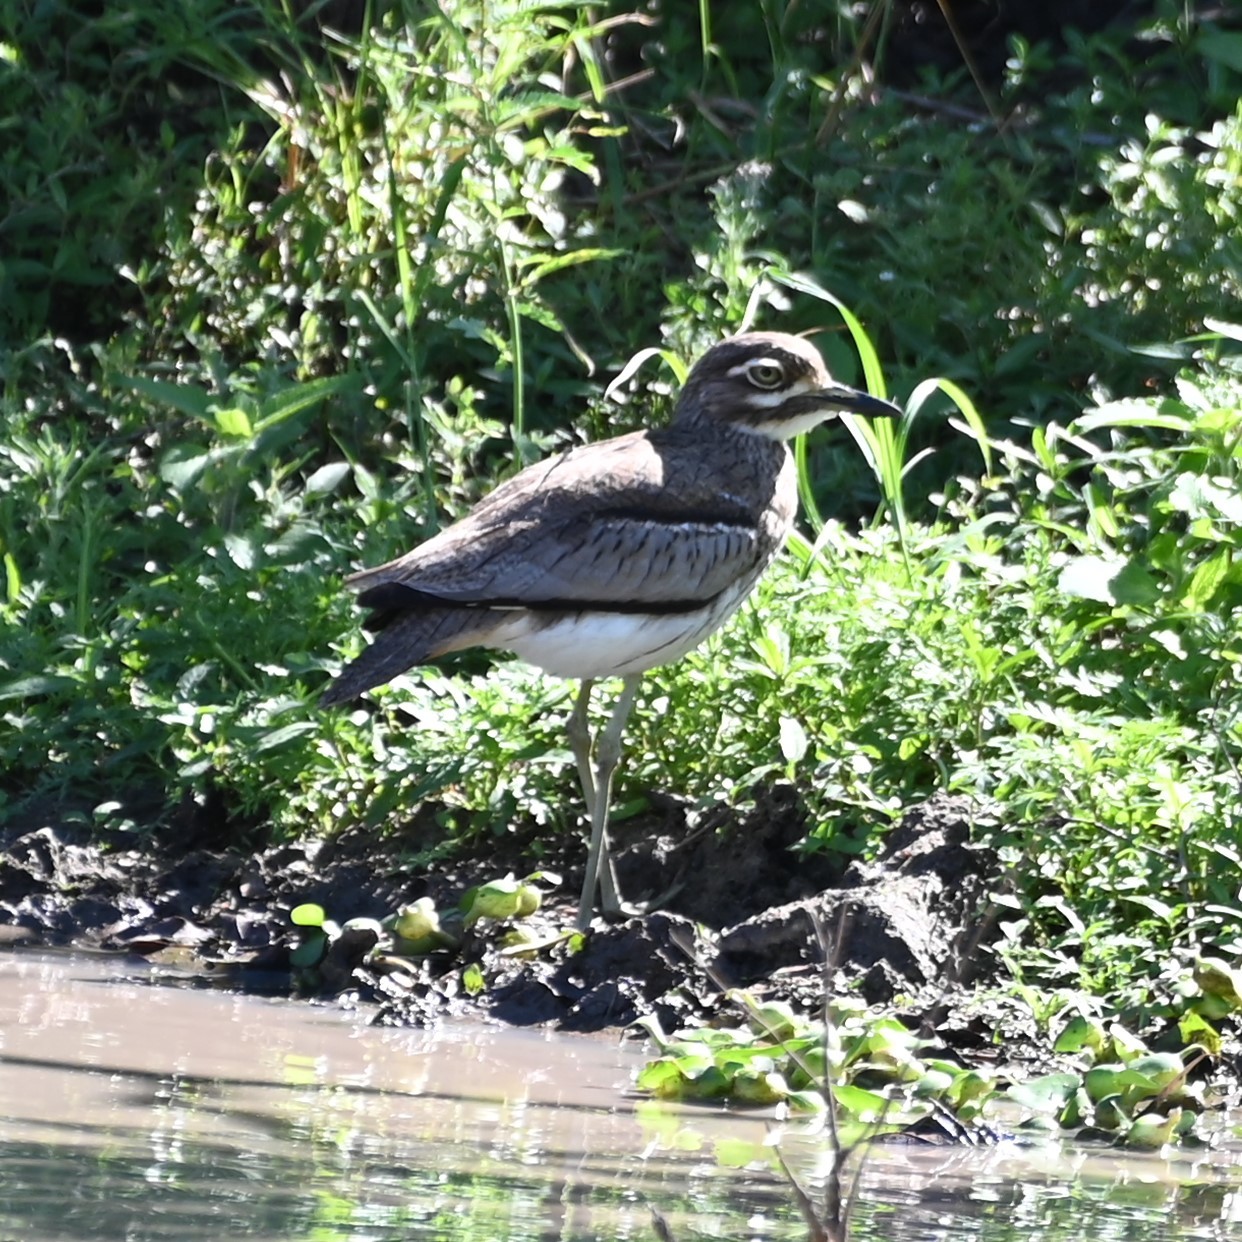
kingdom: Animalia
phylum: Chordata
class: Aves
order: Charadriiformes
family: Burhinidae
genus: Burhinus
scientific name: Burhinus vermiculatus
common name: Water thick-knee
